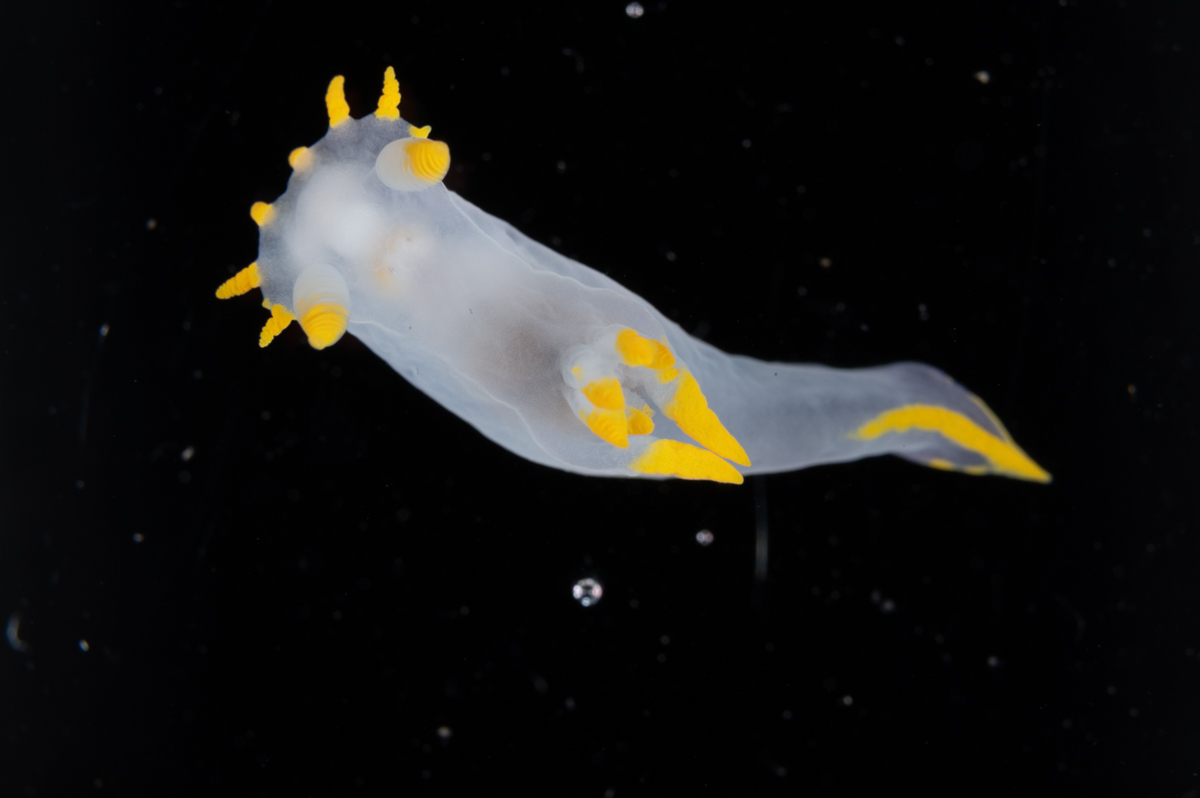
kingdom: Animalia
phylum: Mollusca
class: Gastropoda
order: Nudibranchia
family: Polyceridae
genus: Polycera
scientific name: Polycera kernowensis
